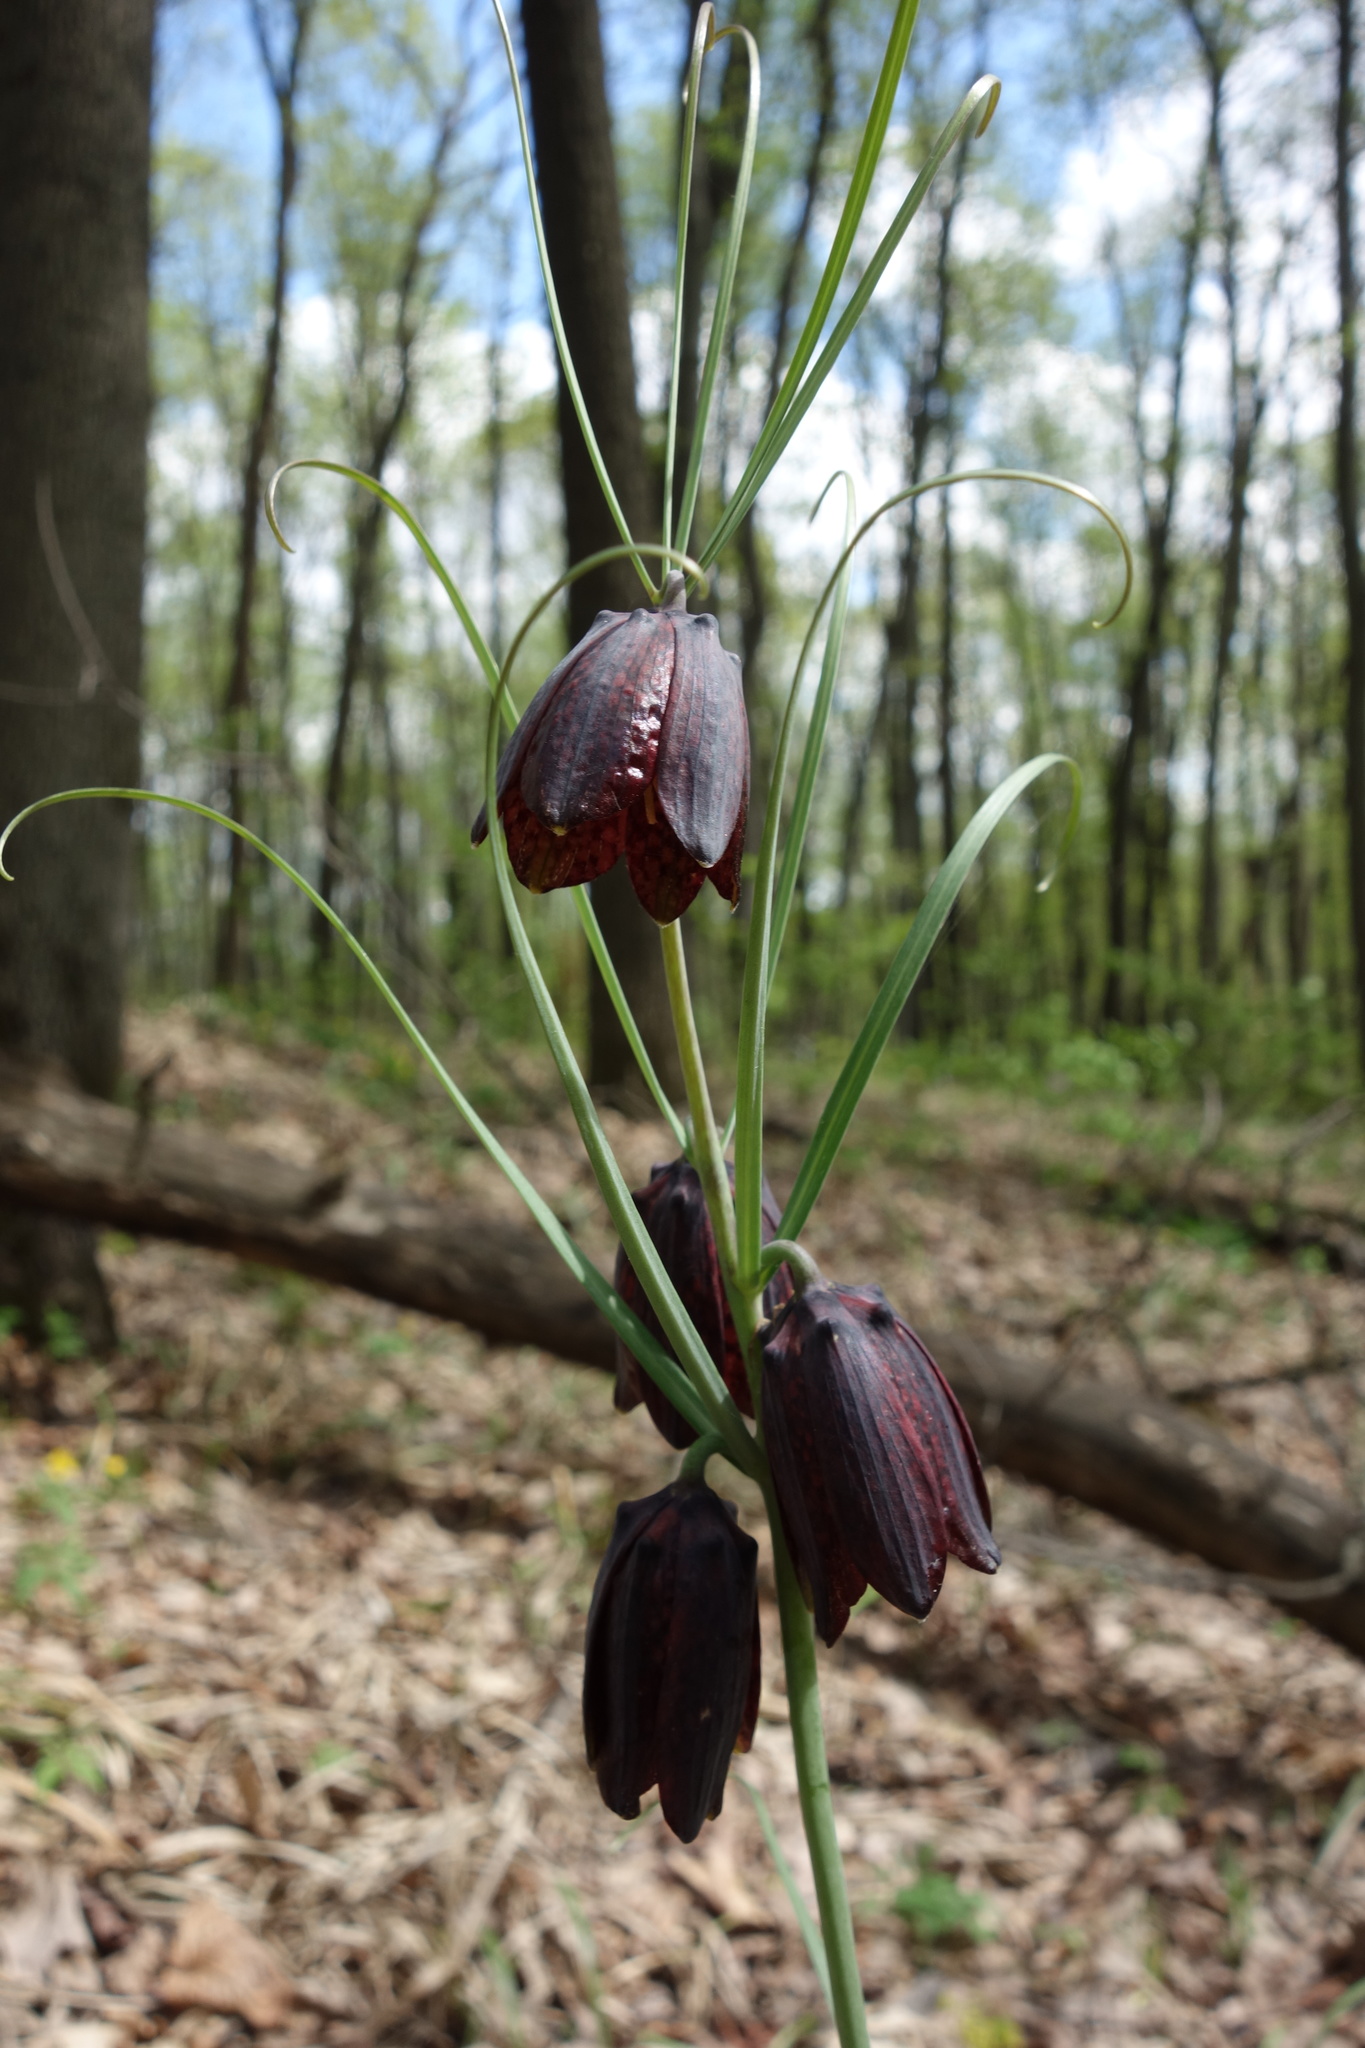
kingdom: Plantae
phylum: Tracheophyta
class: Liliopsida
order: Liliales
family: Liliaceae
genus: Fritillaria
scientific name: Fritillaria ruthenica
